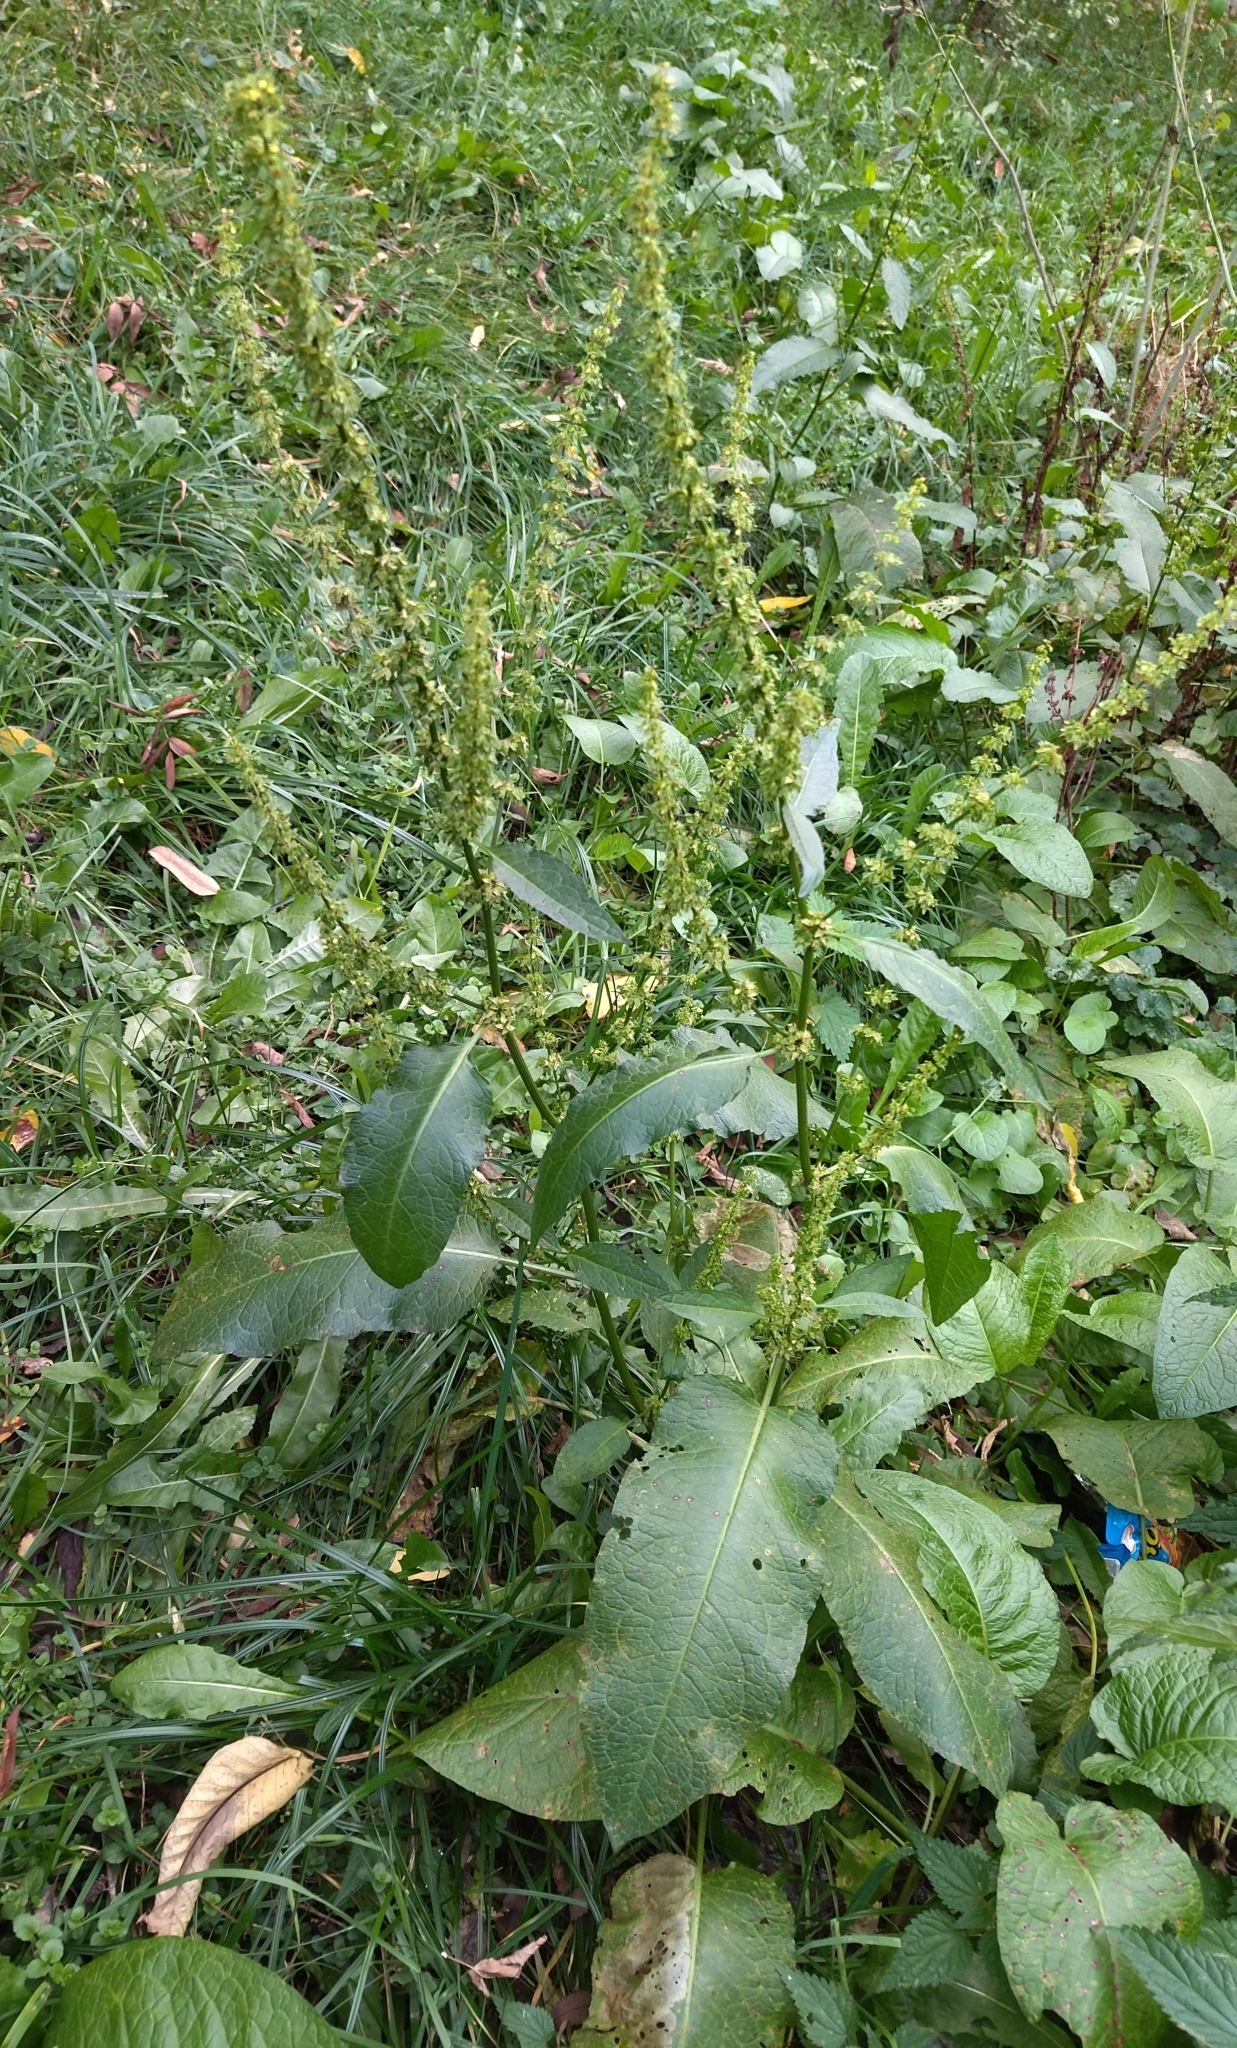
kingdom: Plantae
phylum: Tracheophyta
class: Magnoliopsida
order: Caryophyllales
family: Polygonaceae
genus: Rumex
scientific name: Rumex obtusifolius
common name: Bitter dock
